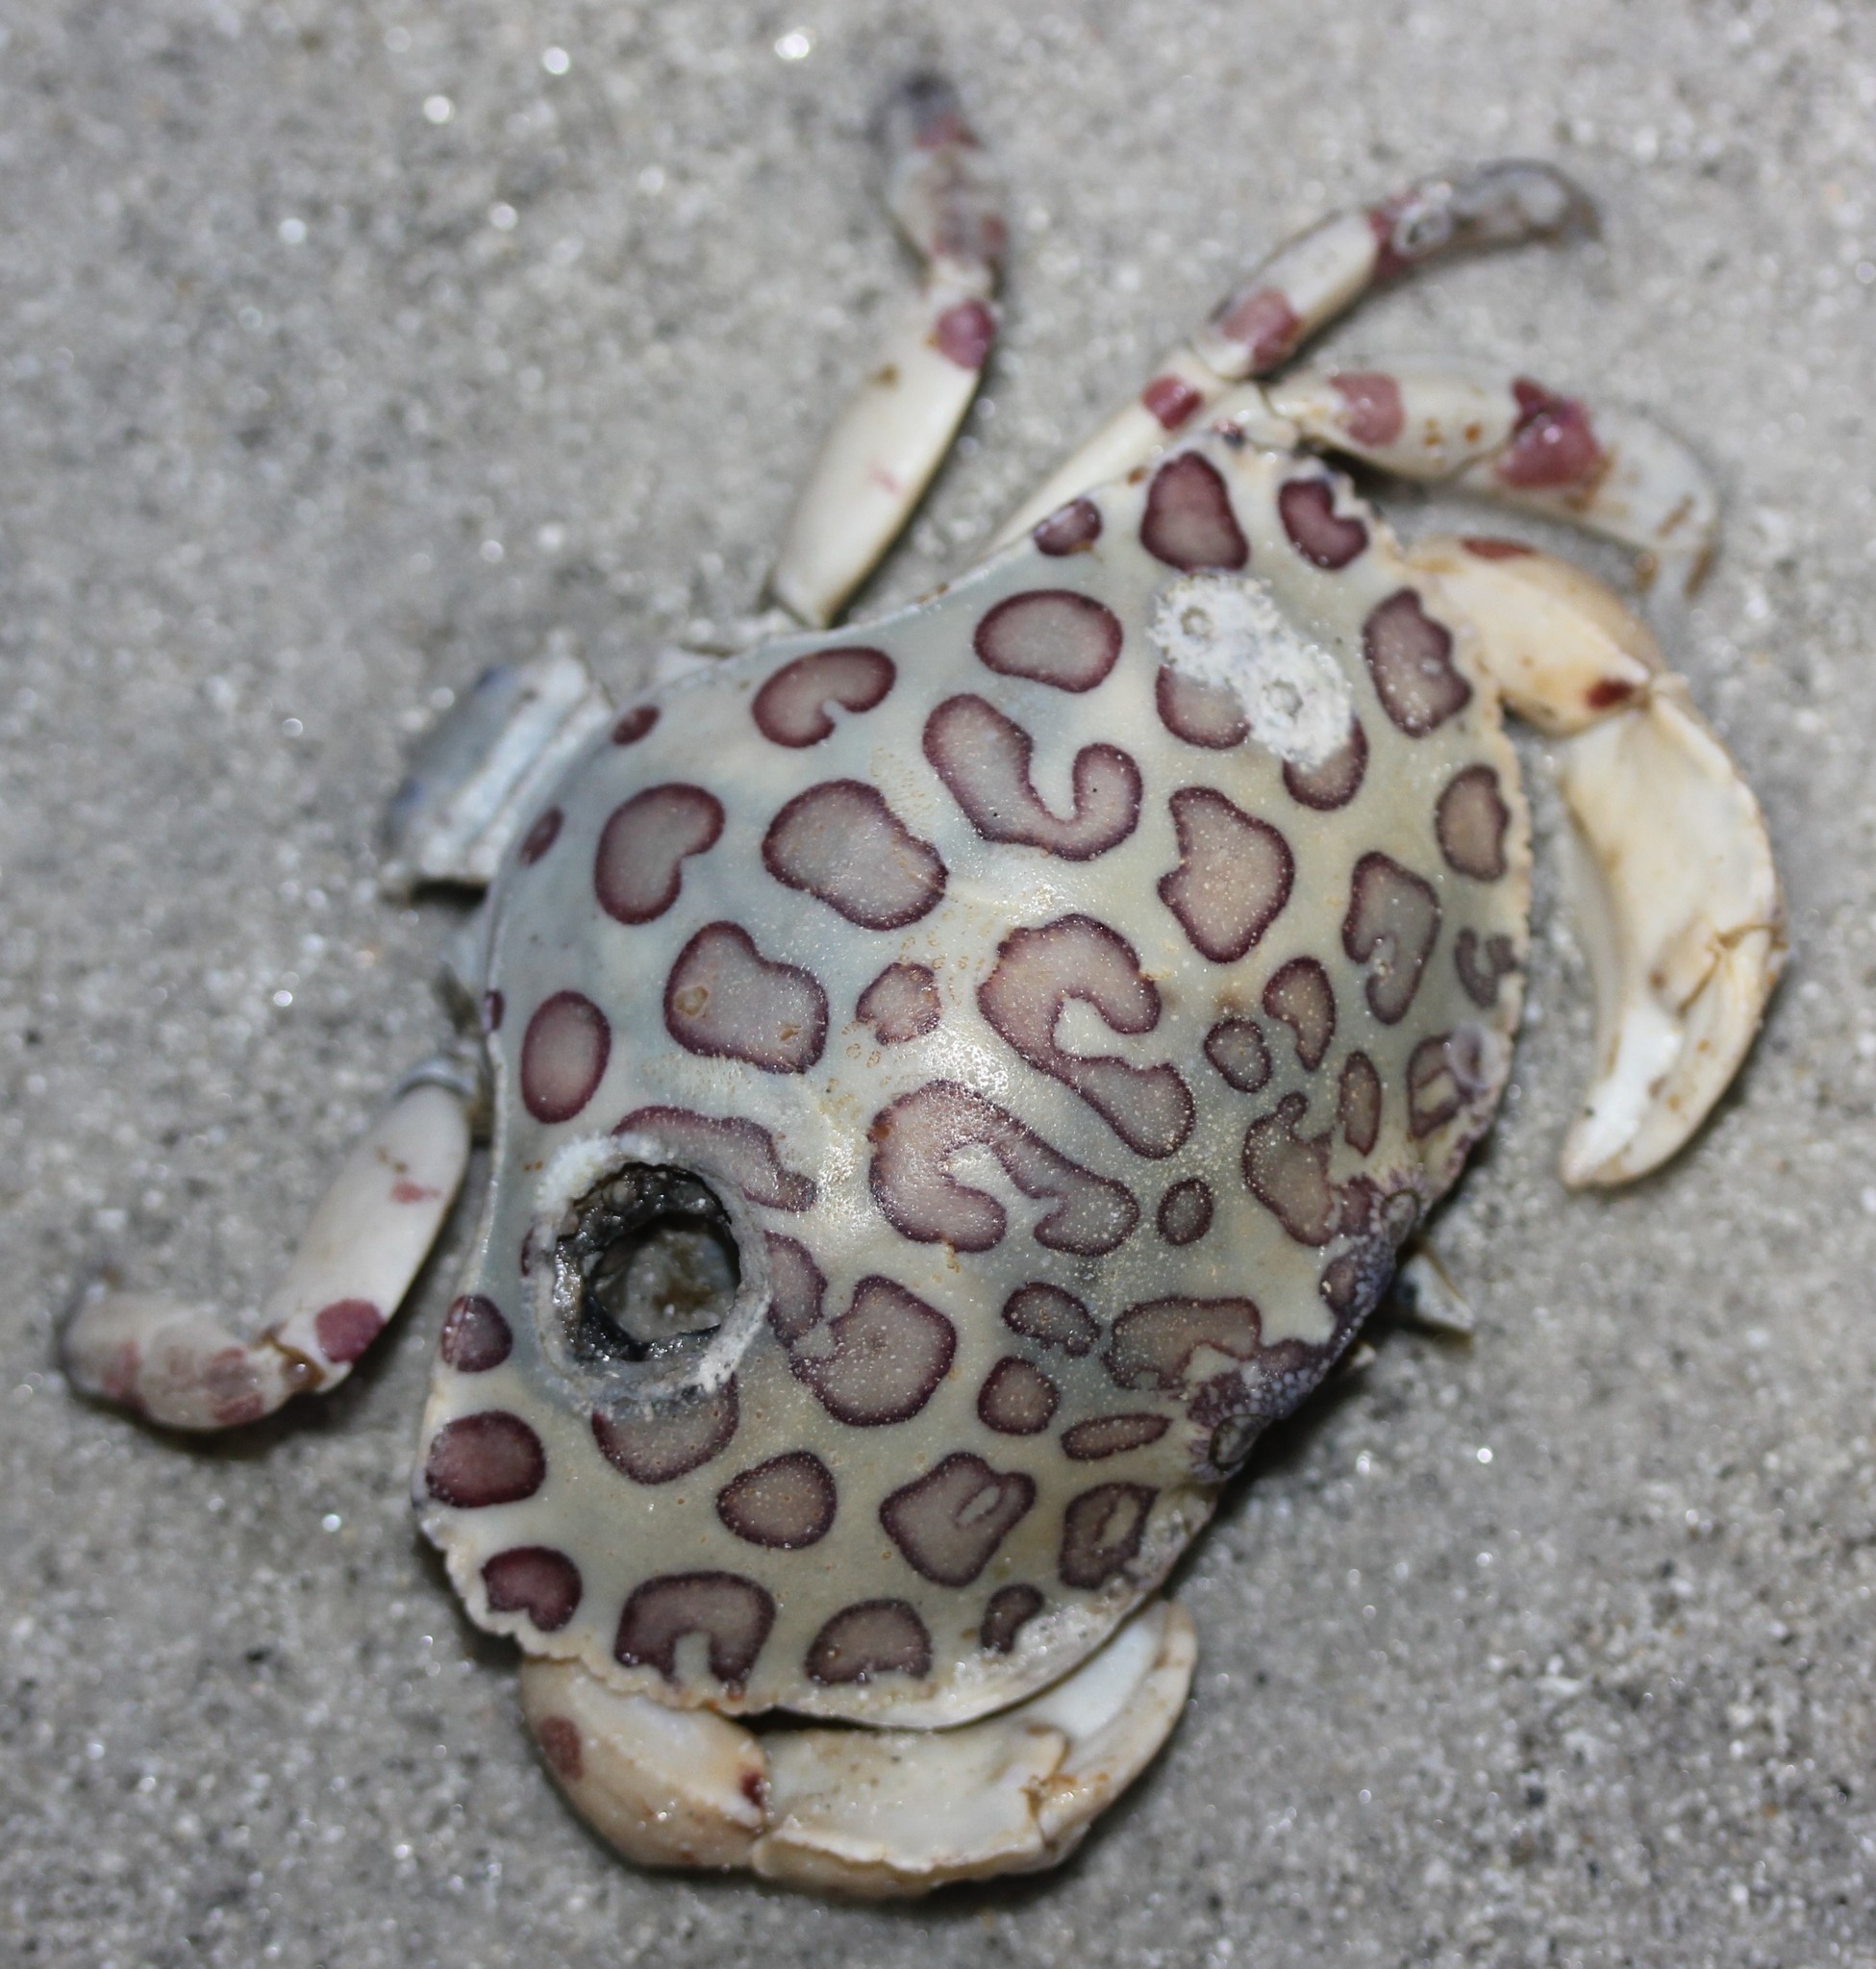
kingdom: Animalia
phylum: Arthropoda
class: Malacostraca
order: Decapoda
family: Aethridae
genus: Hepatus
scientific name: Hepatus epheliticus
